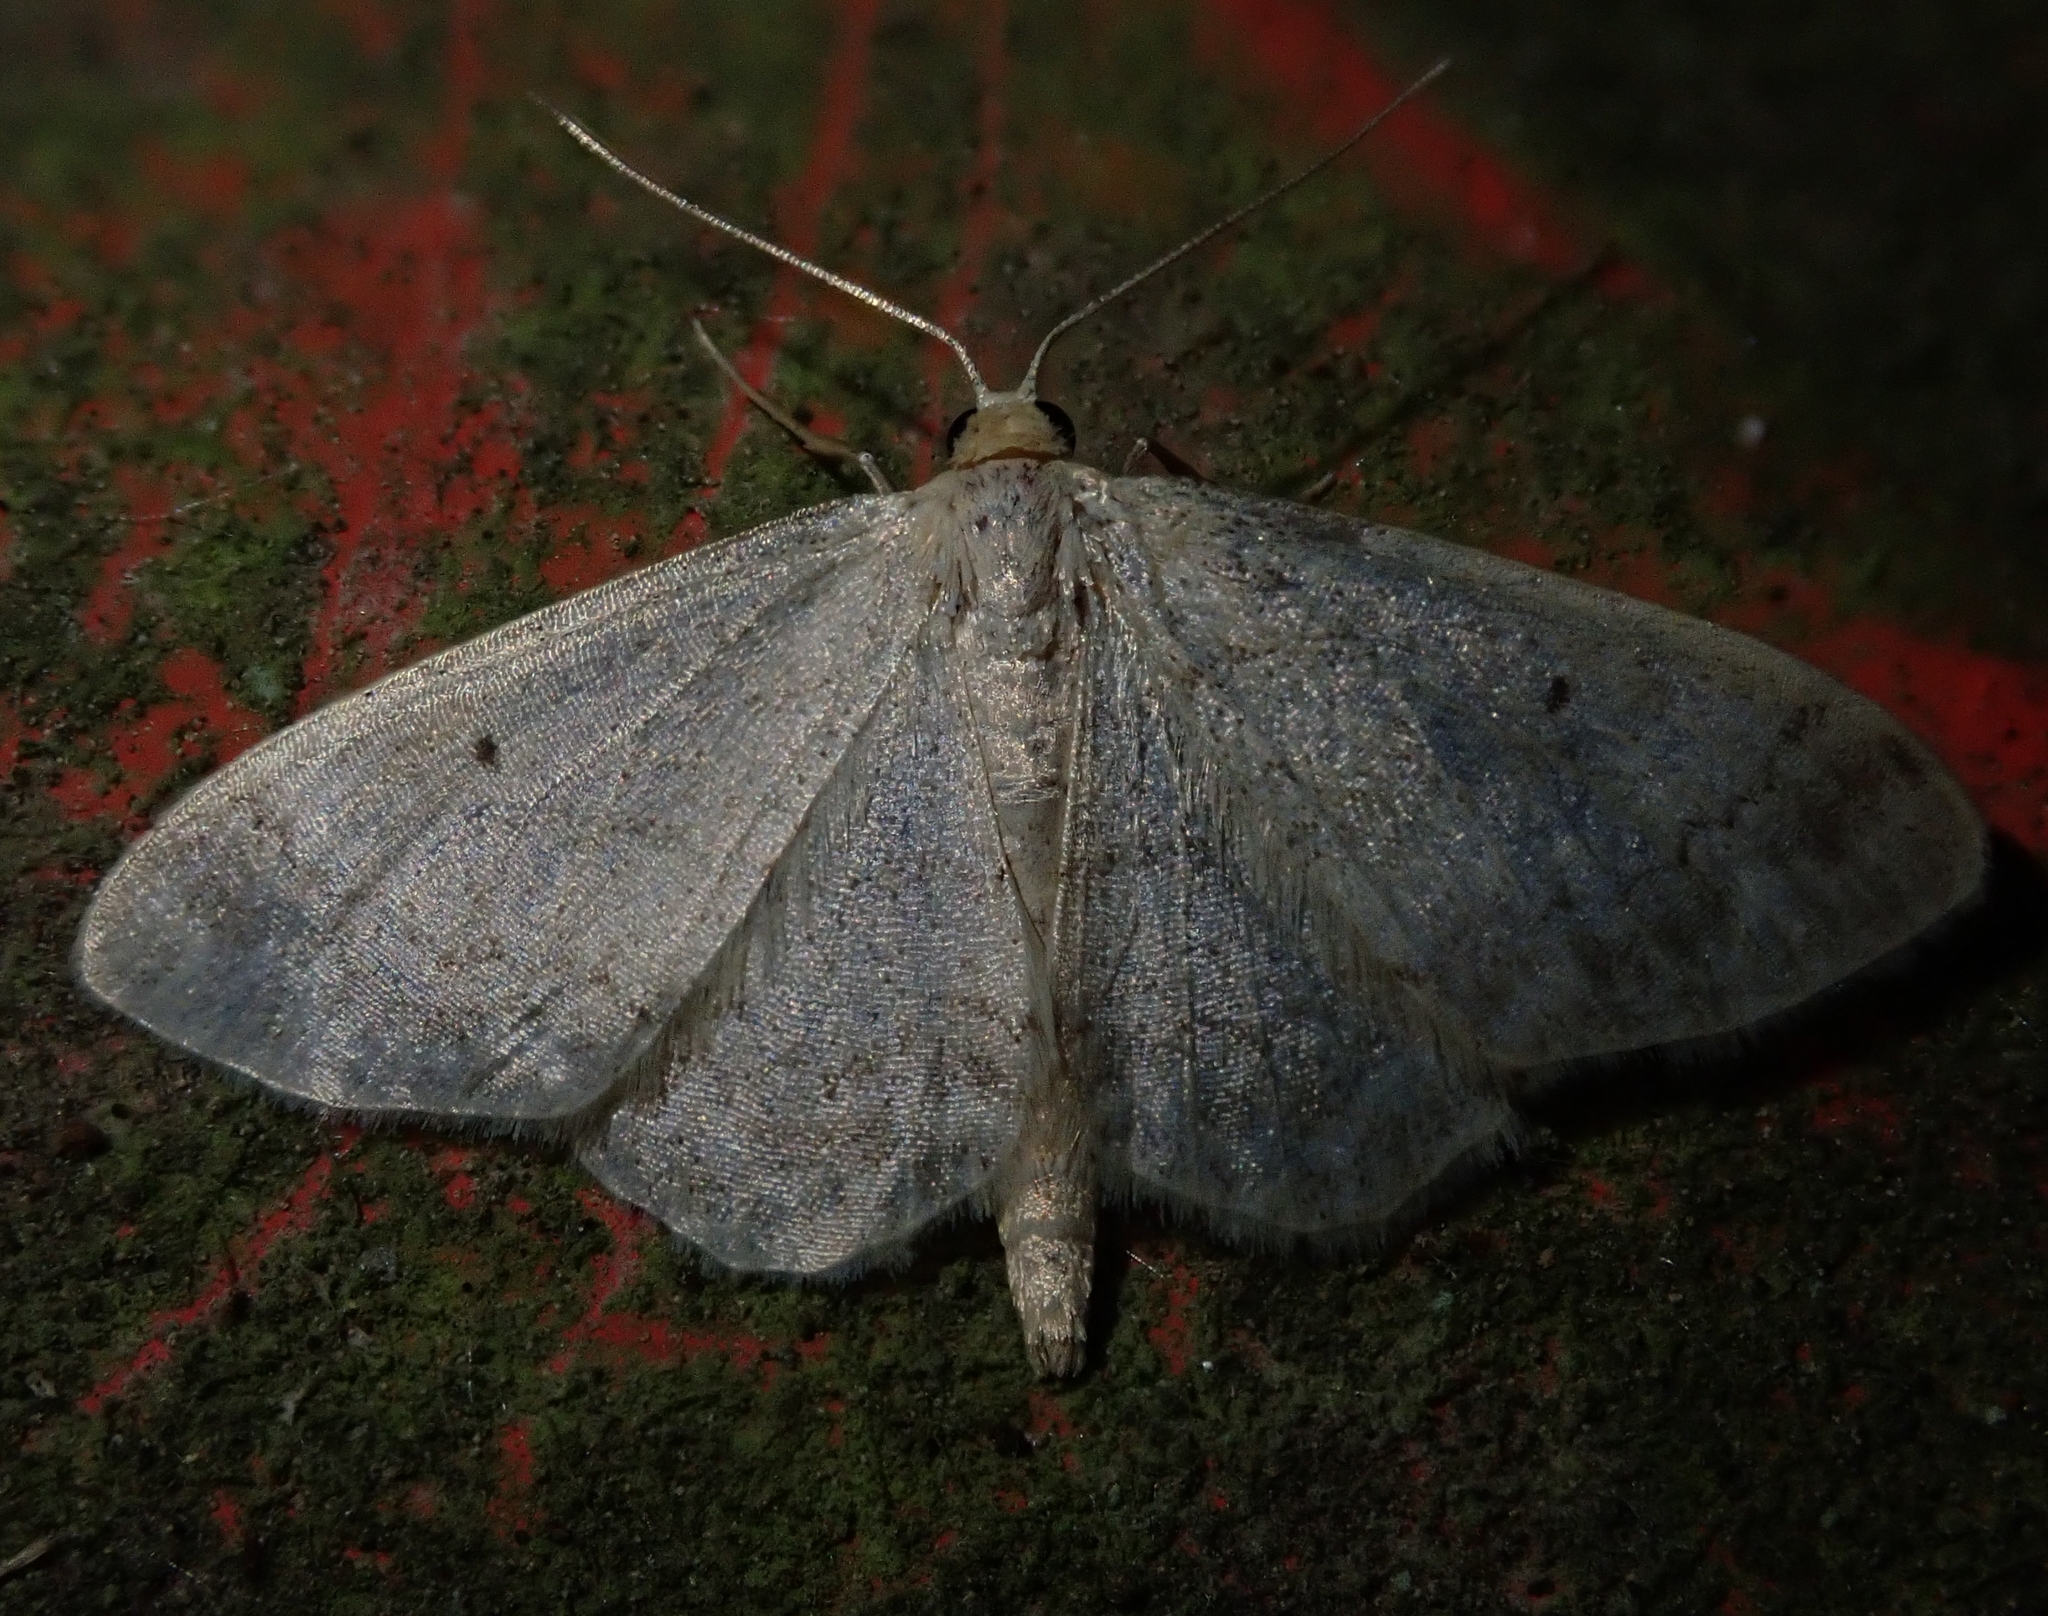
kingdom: Animalia
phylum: Arthropoda
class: Insecta
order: Lepidoptera
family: Geometridae
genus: Idaea
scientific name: Idaea biselata
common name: Small fan-footed wave
